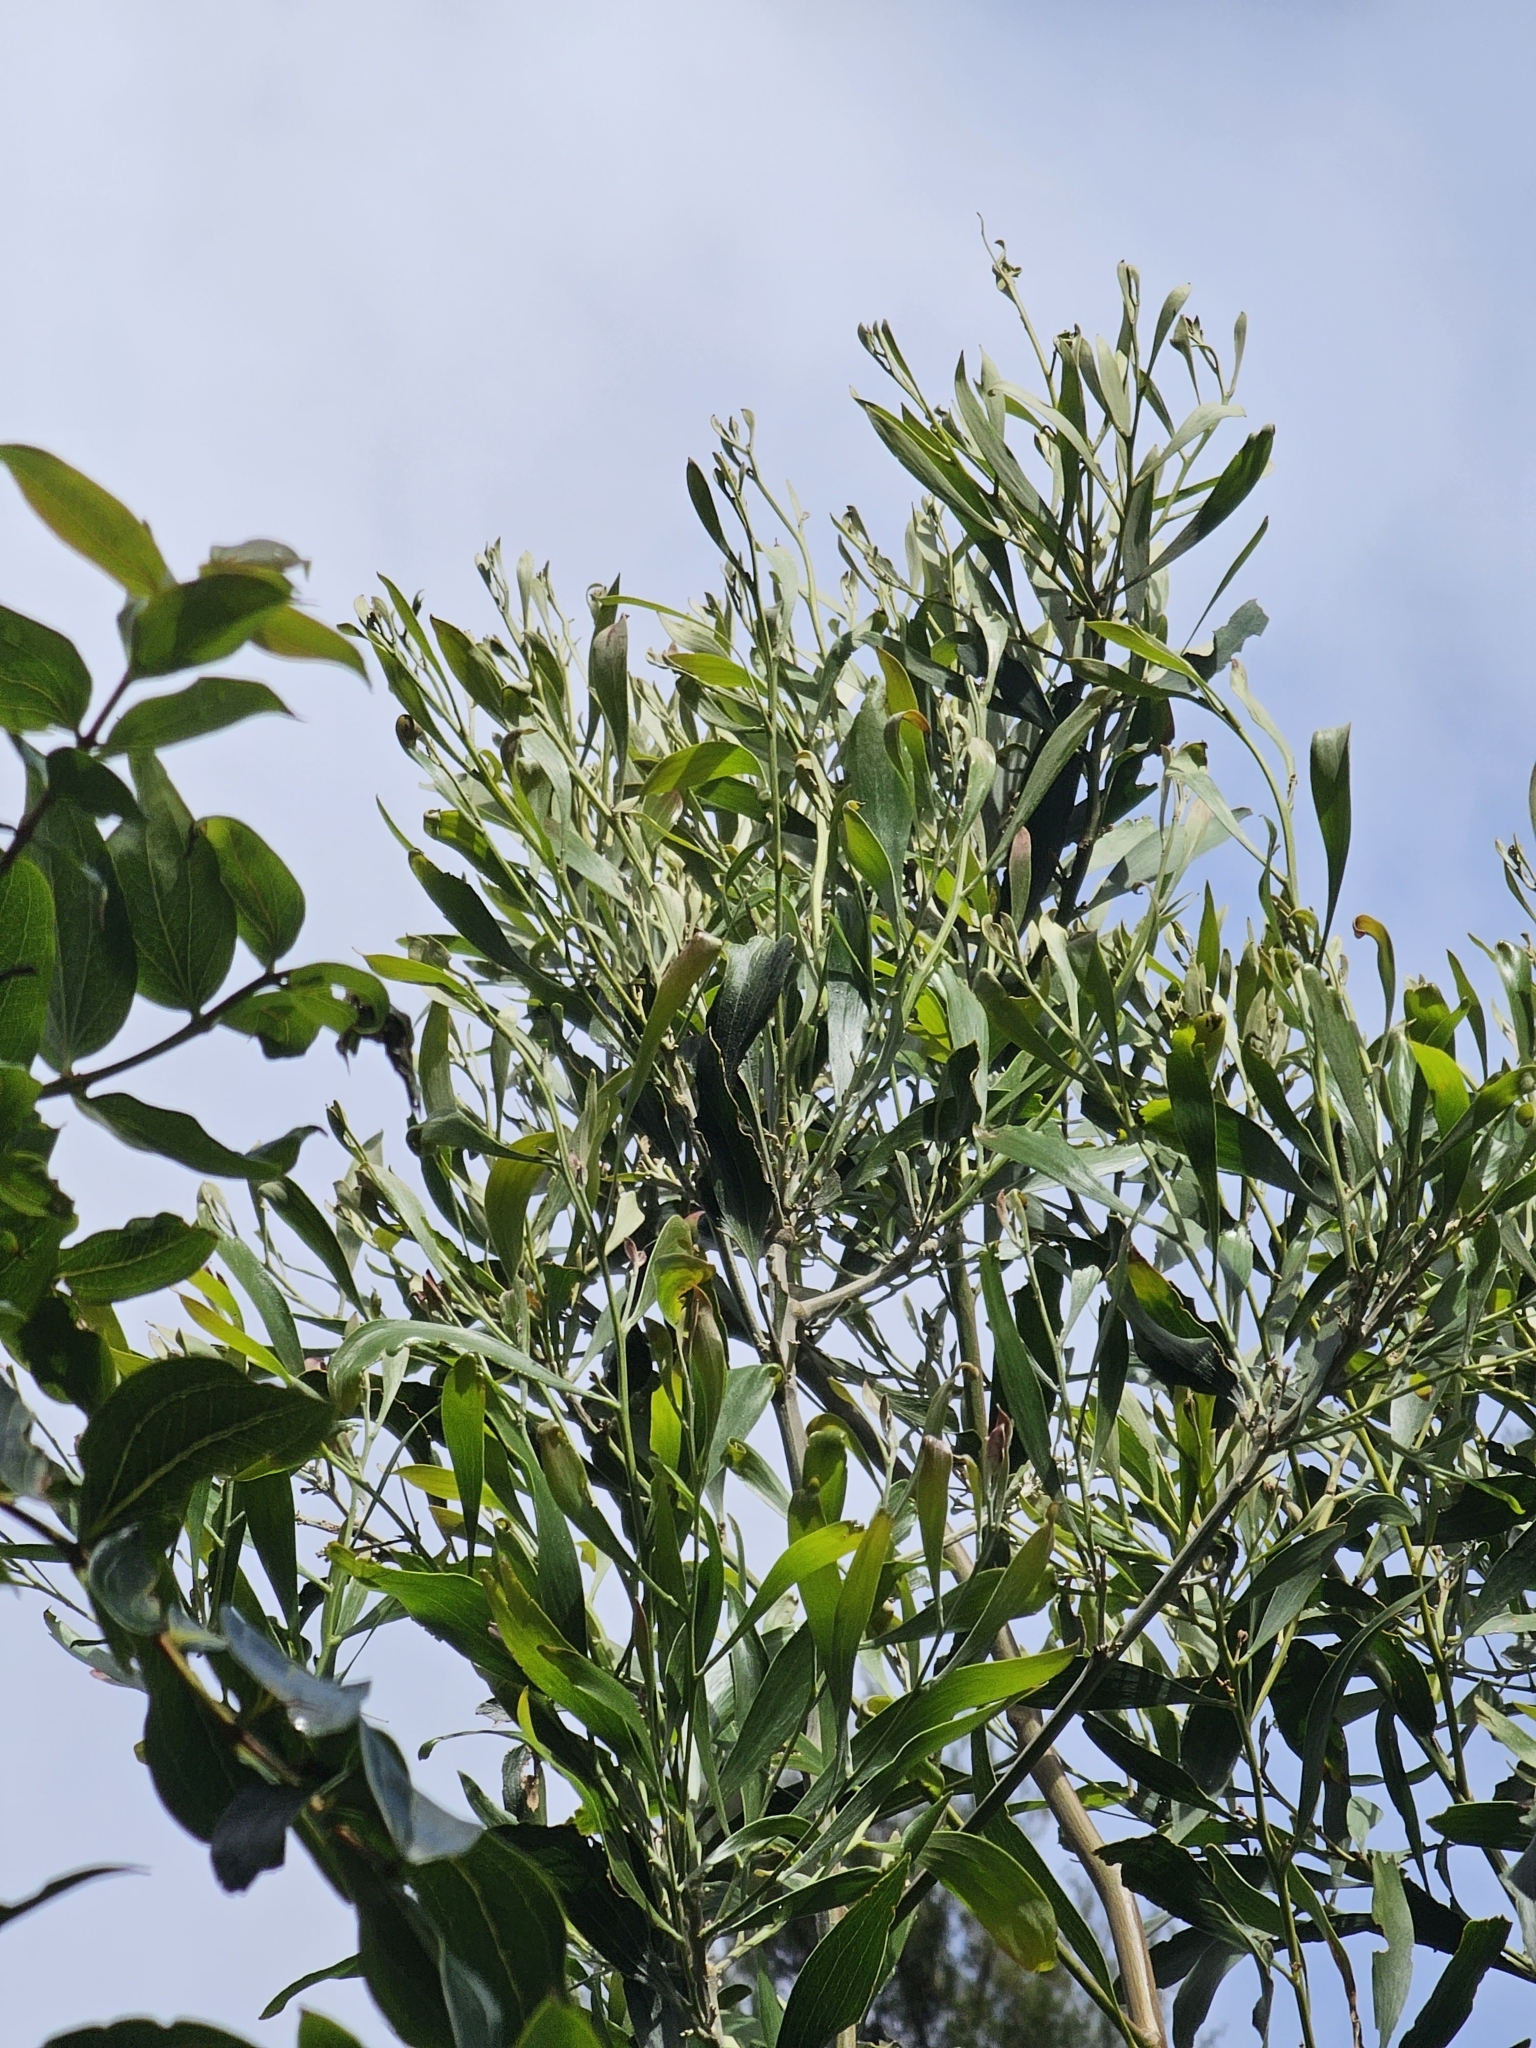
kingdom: Plantae
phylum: Tracheophyta
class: Magnoliopsida
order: Fabales
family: Fabaceae
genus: Acacia
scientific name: Acacia melanoxylon
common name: Blackwood
